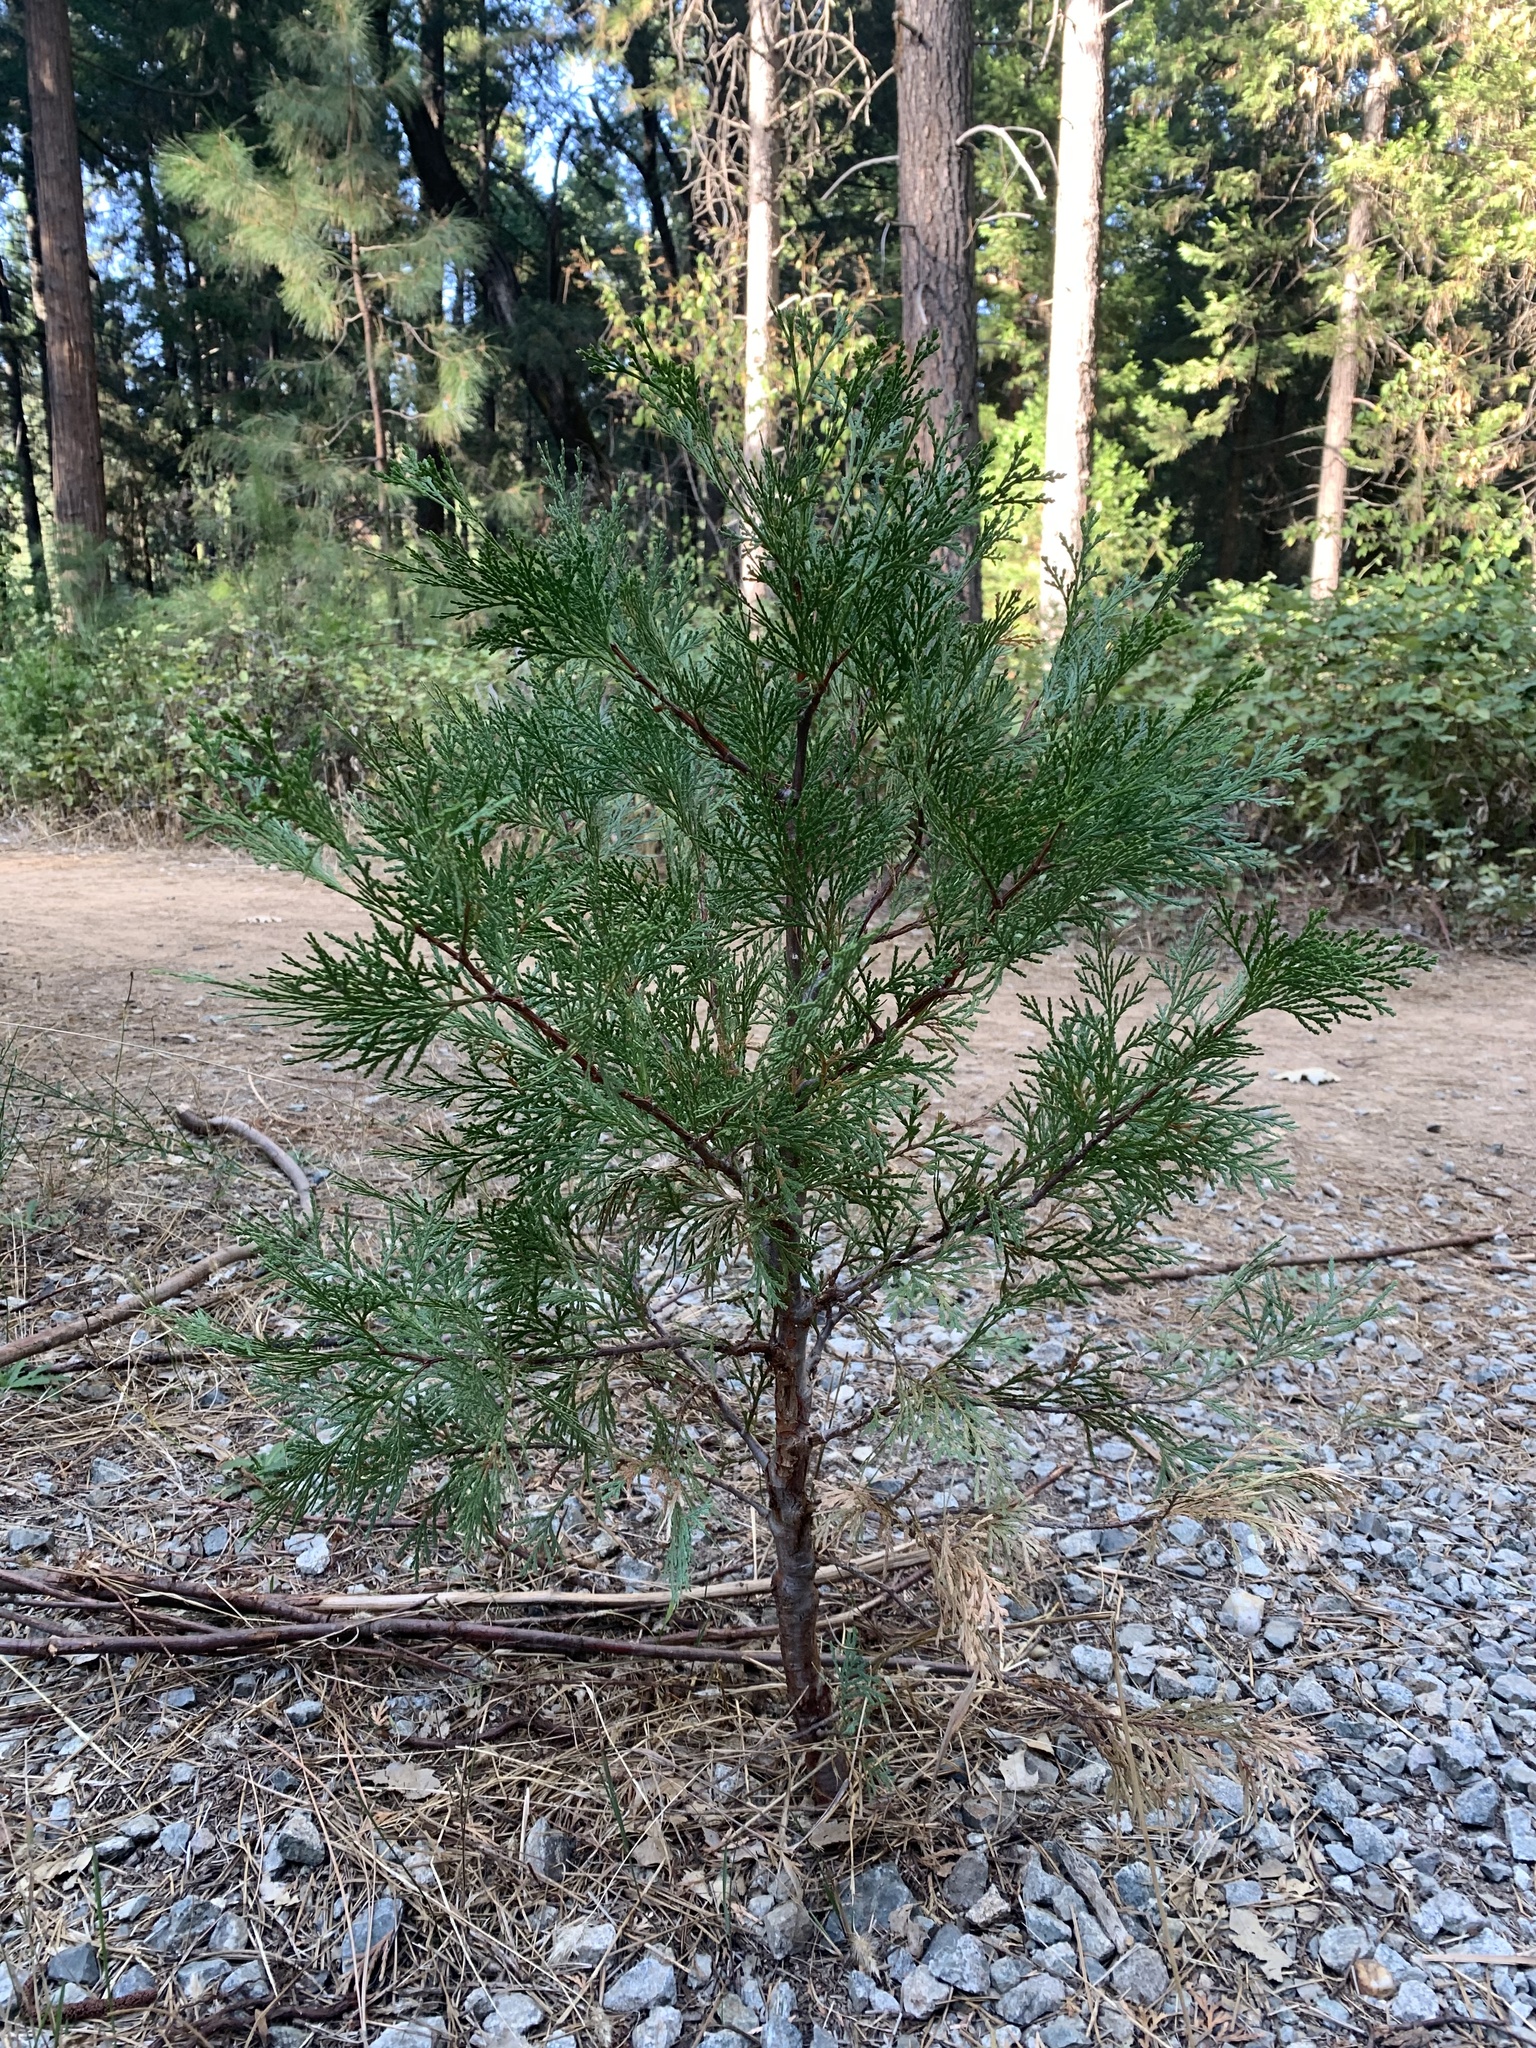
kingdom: Plantae
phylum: Tracheophyta
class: Pinopsida
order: Pinales
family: Cupressaceae
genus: Calocedrus
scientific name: Calocedrus decurrens
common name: Californian incense-cedar
